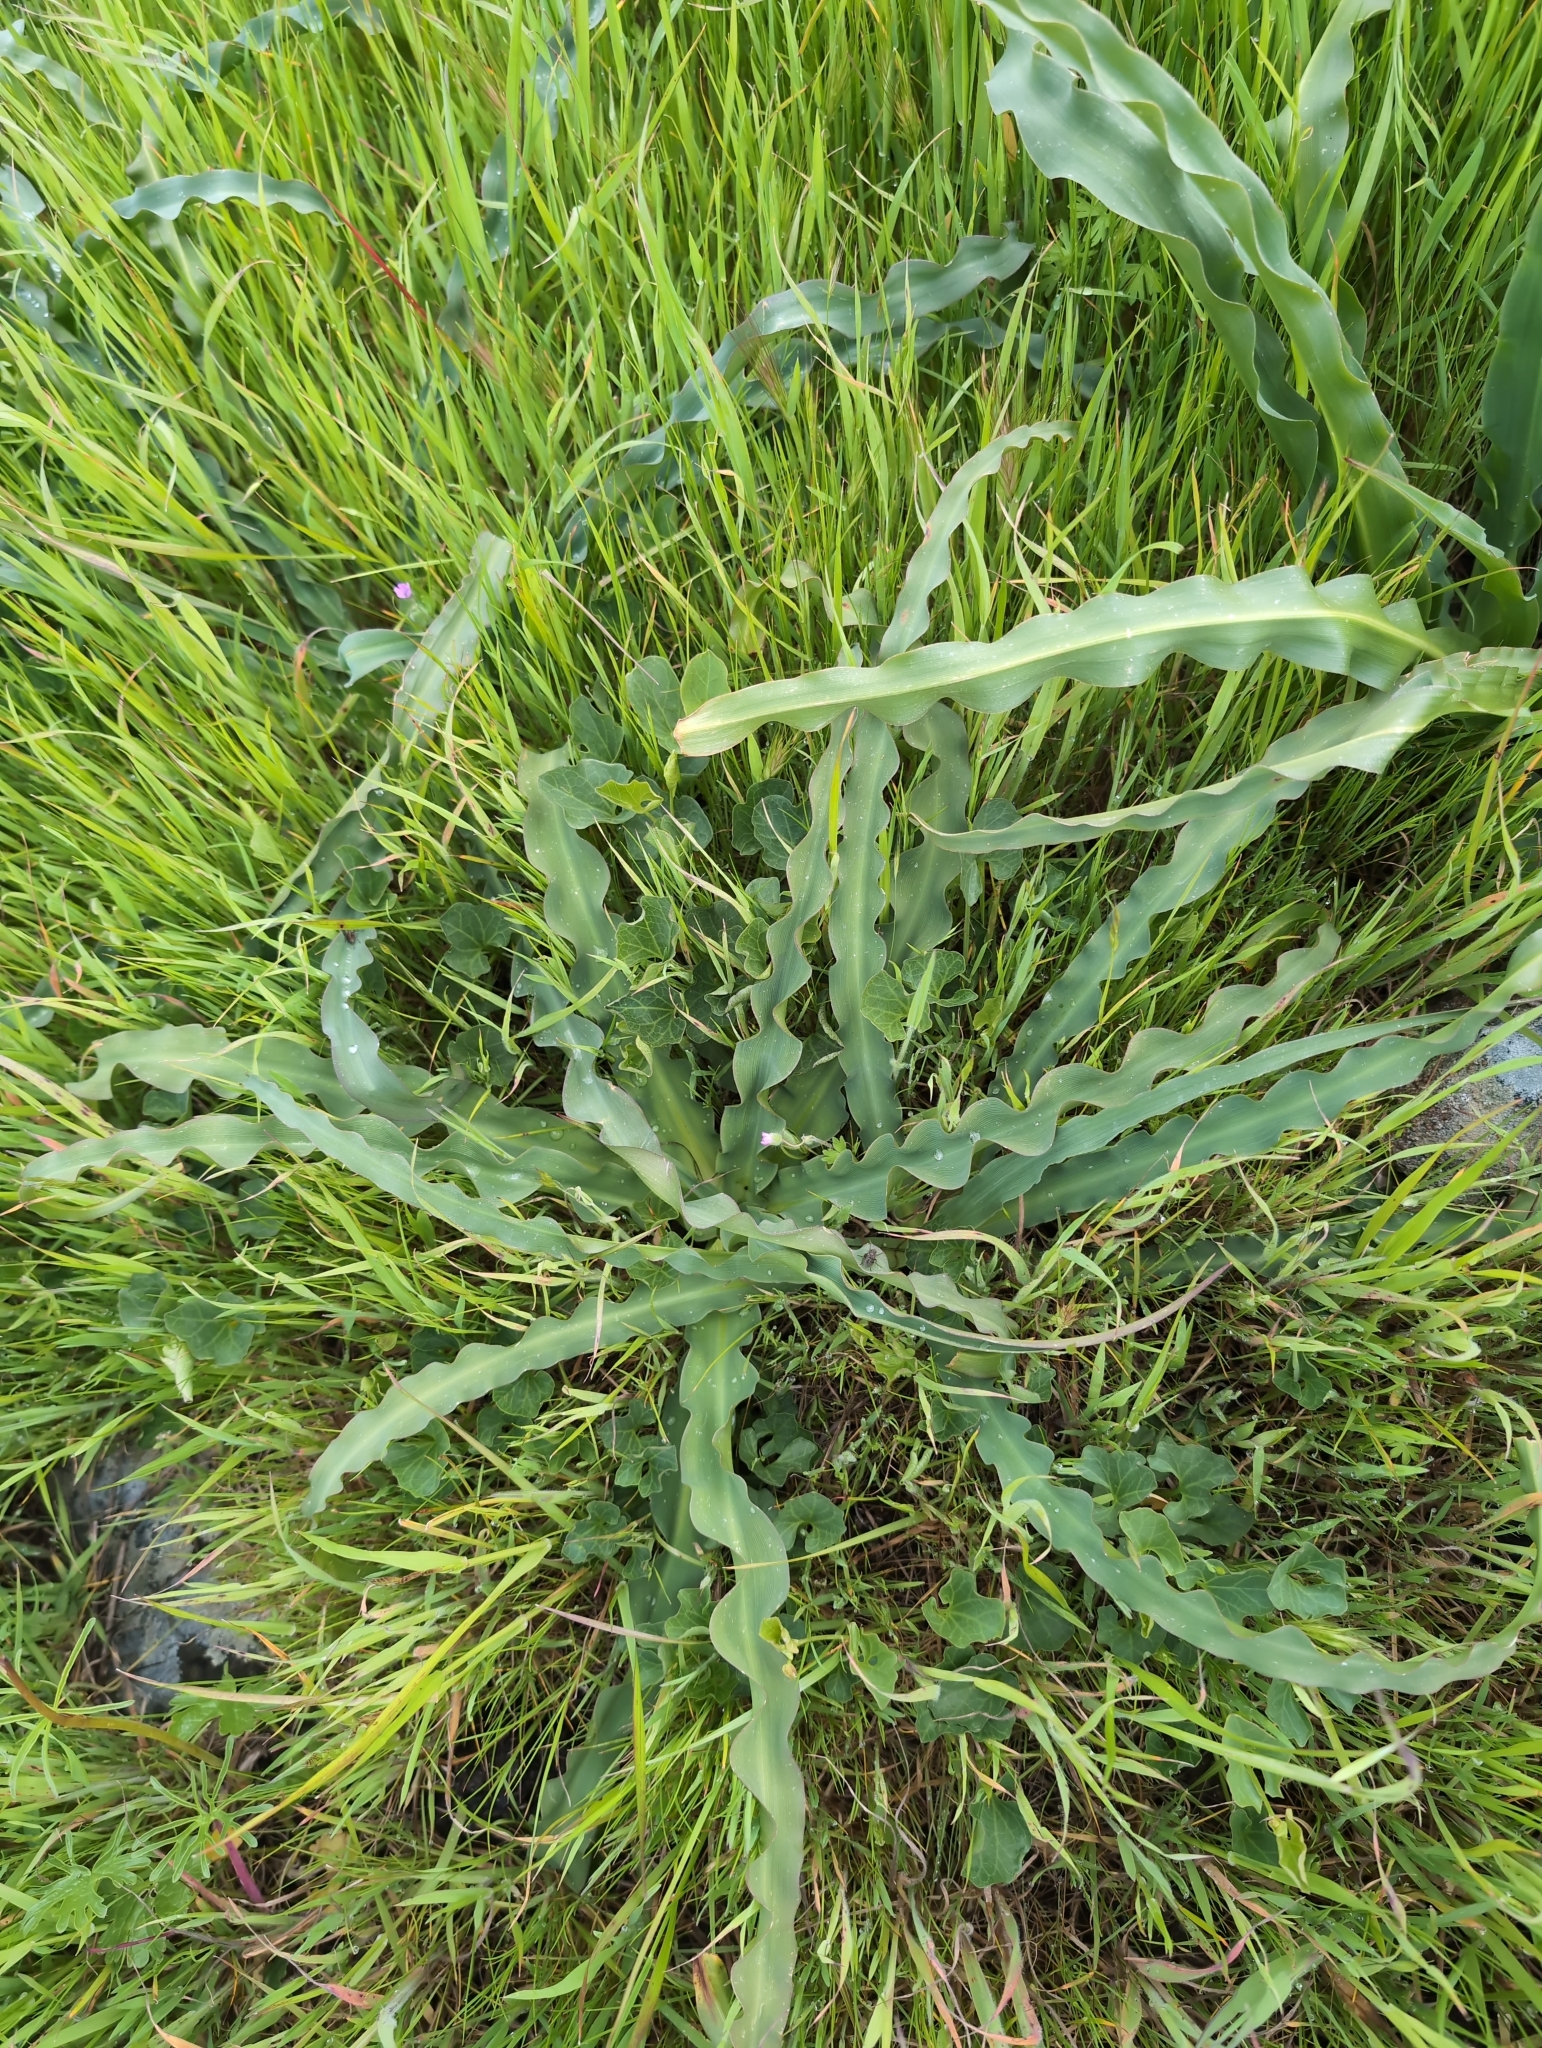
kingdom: Plantae
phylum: Tracheophyta
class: Liliopsida
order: Asparagales
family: Asparagaceae
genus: Chlorogalum
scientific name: Chlorogalum pomeridianum
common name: Amole
